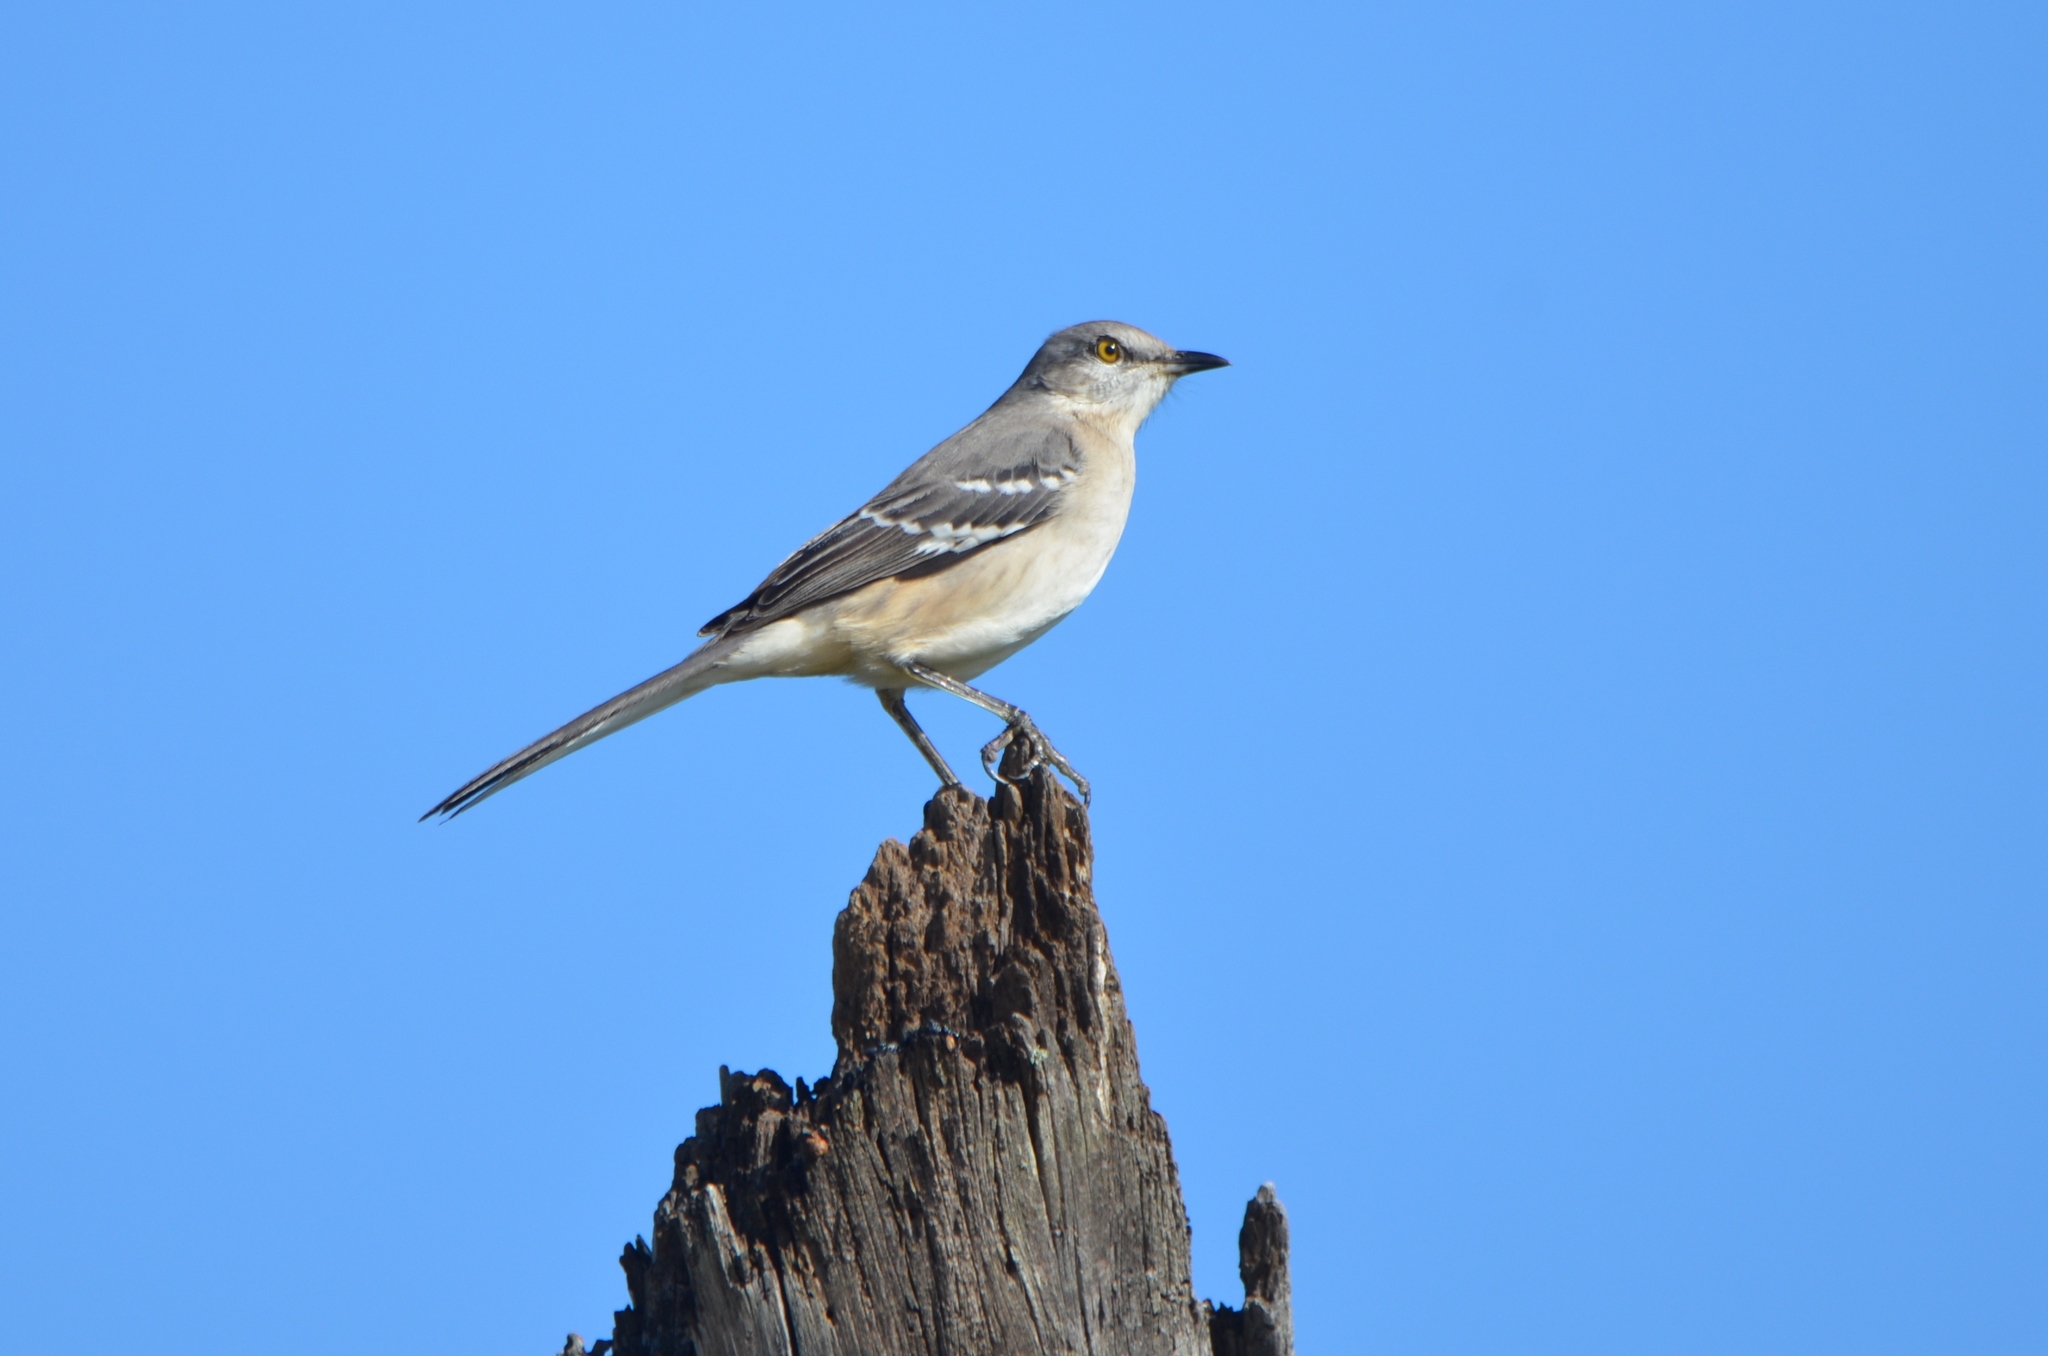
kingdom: Animalia
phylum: Chordata
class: Aves
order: Passeriformes
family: Mimidae
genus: Mimus
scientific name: Mimus polyglottos
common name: Northern mockingbird
